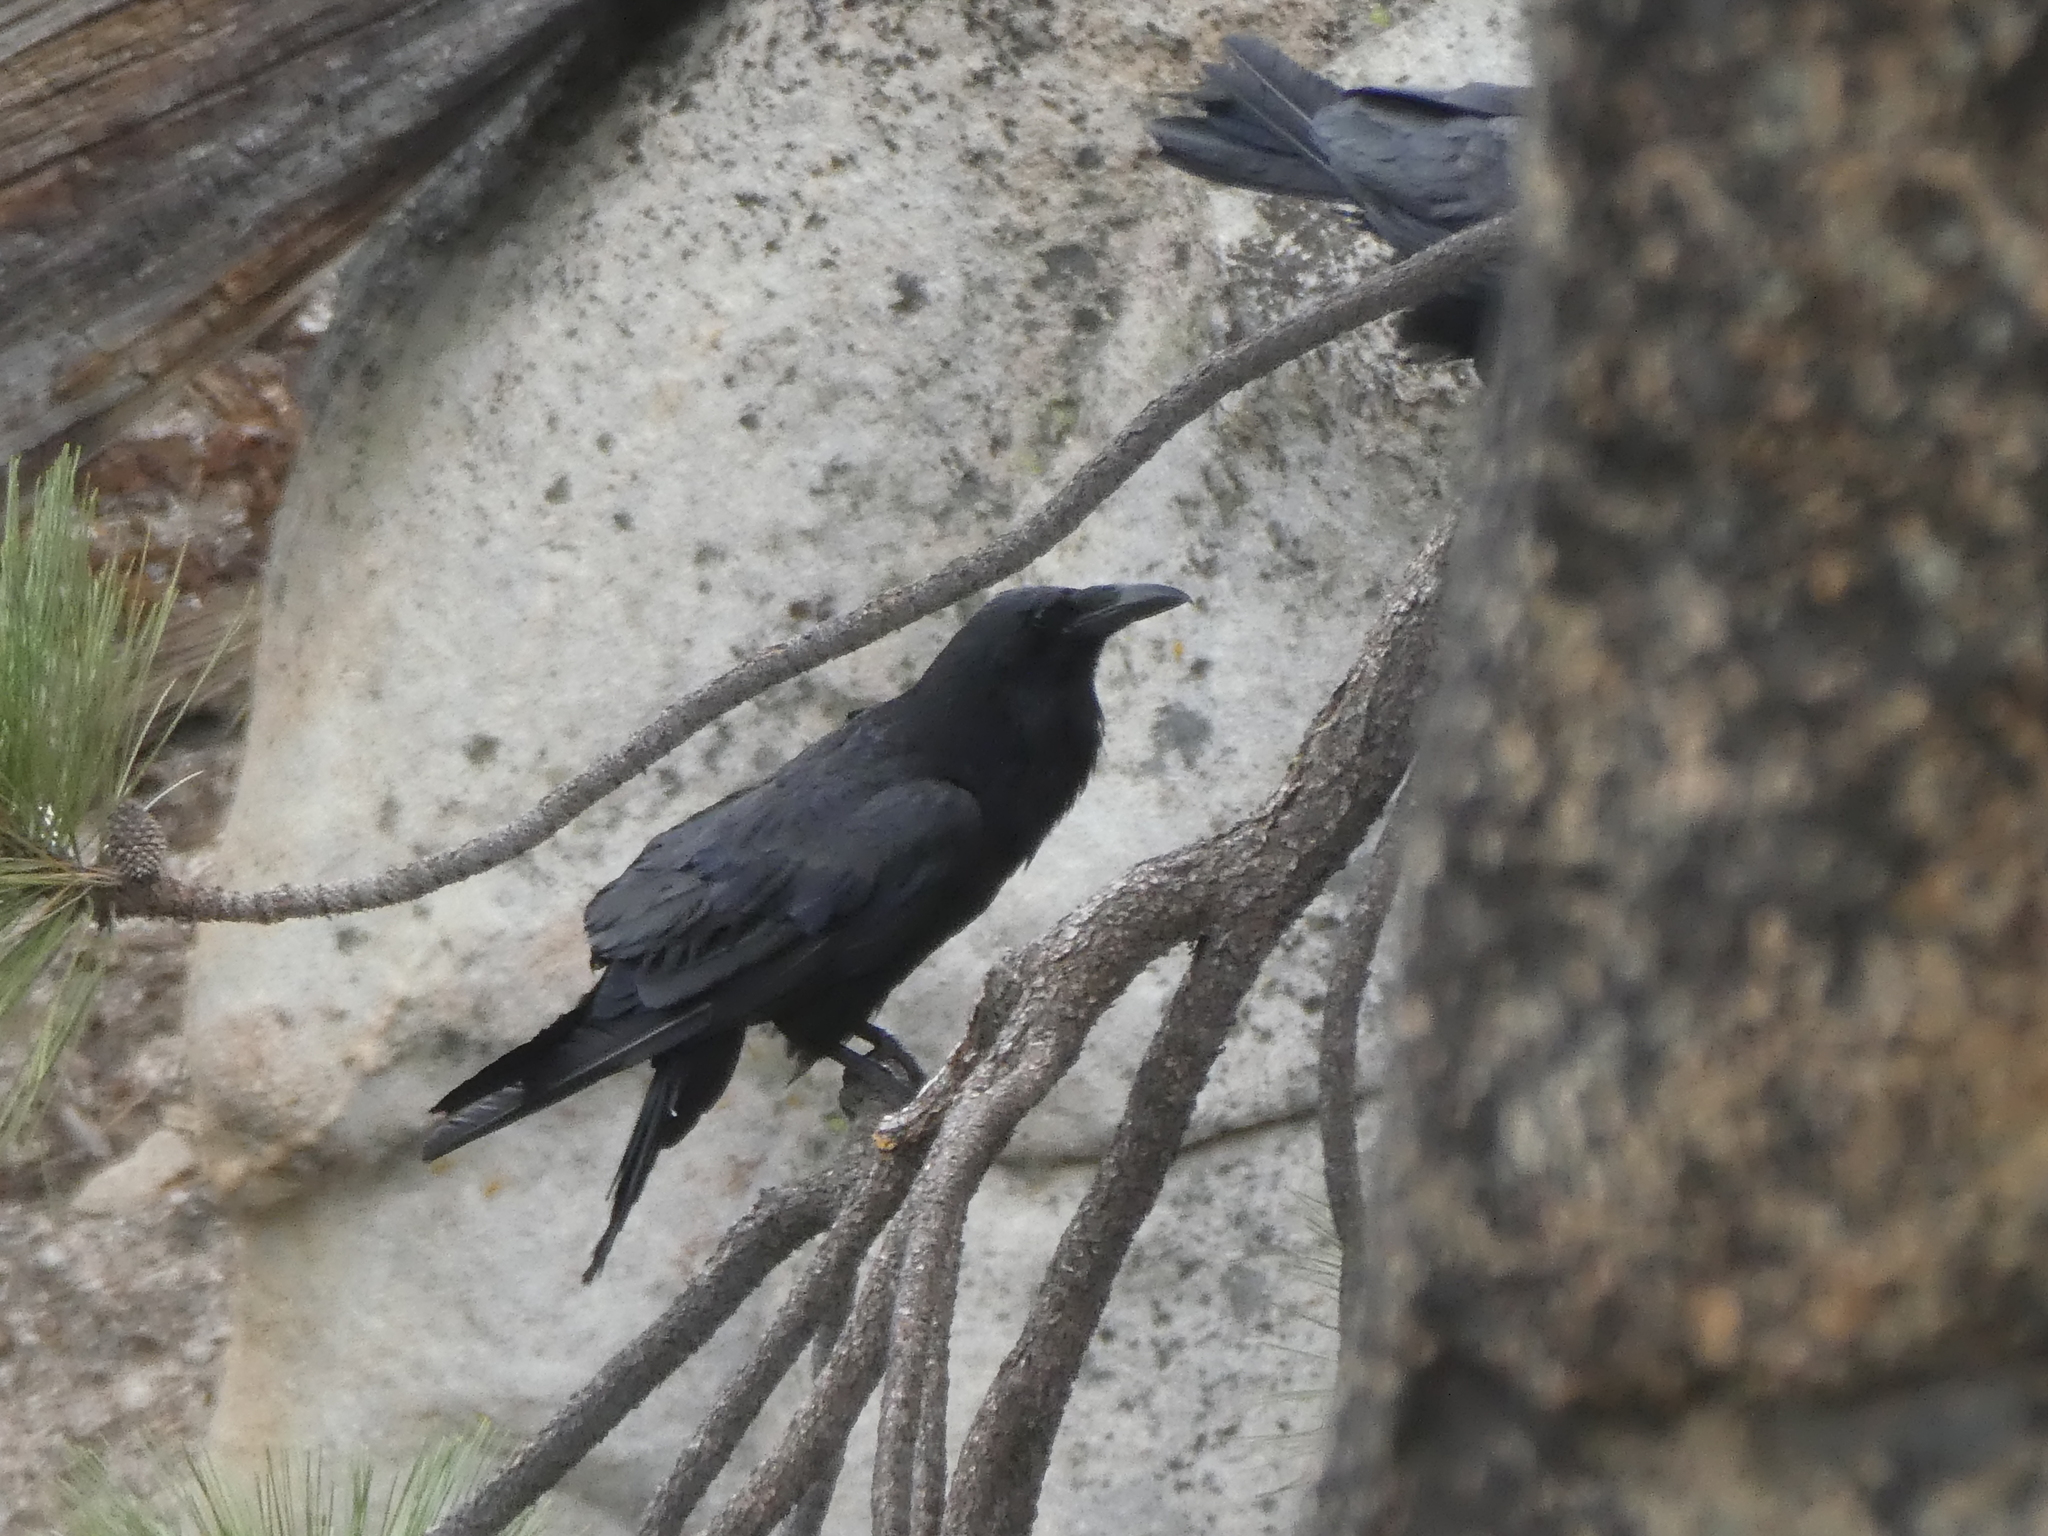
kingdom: Animalia
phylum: Chordata
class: Aves
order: Passeriformes
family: Corvidae
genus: Corvus
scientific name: Corvus corax
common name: Common raven
